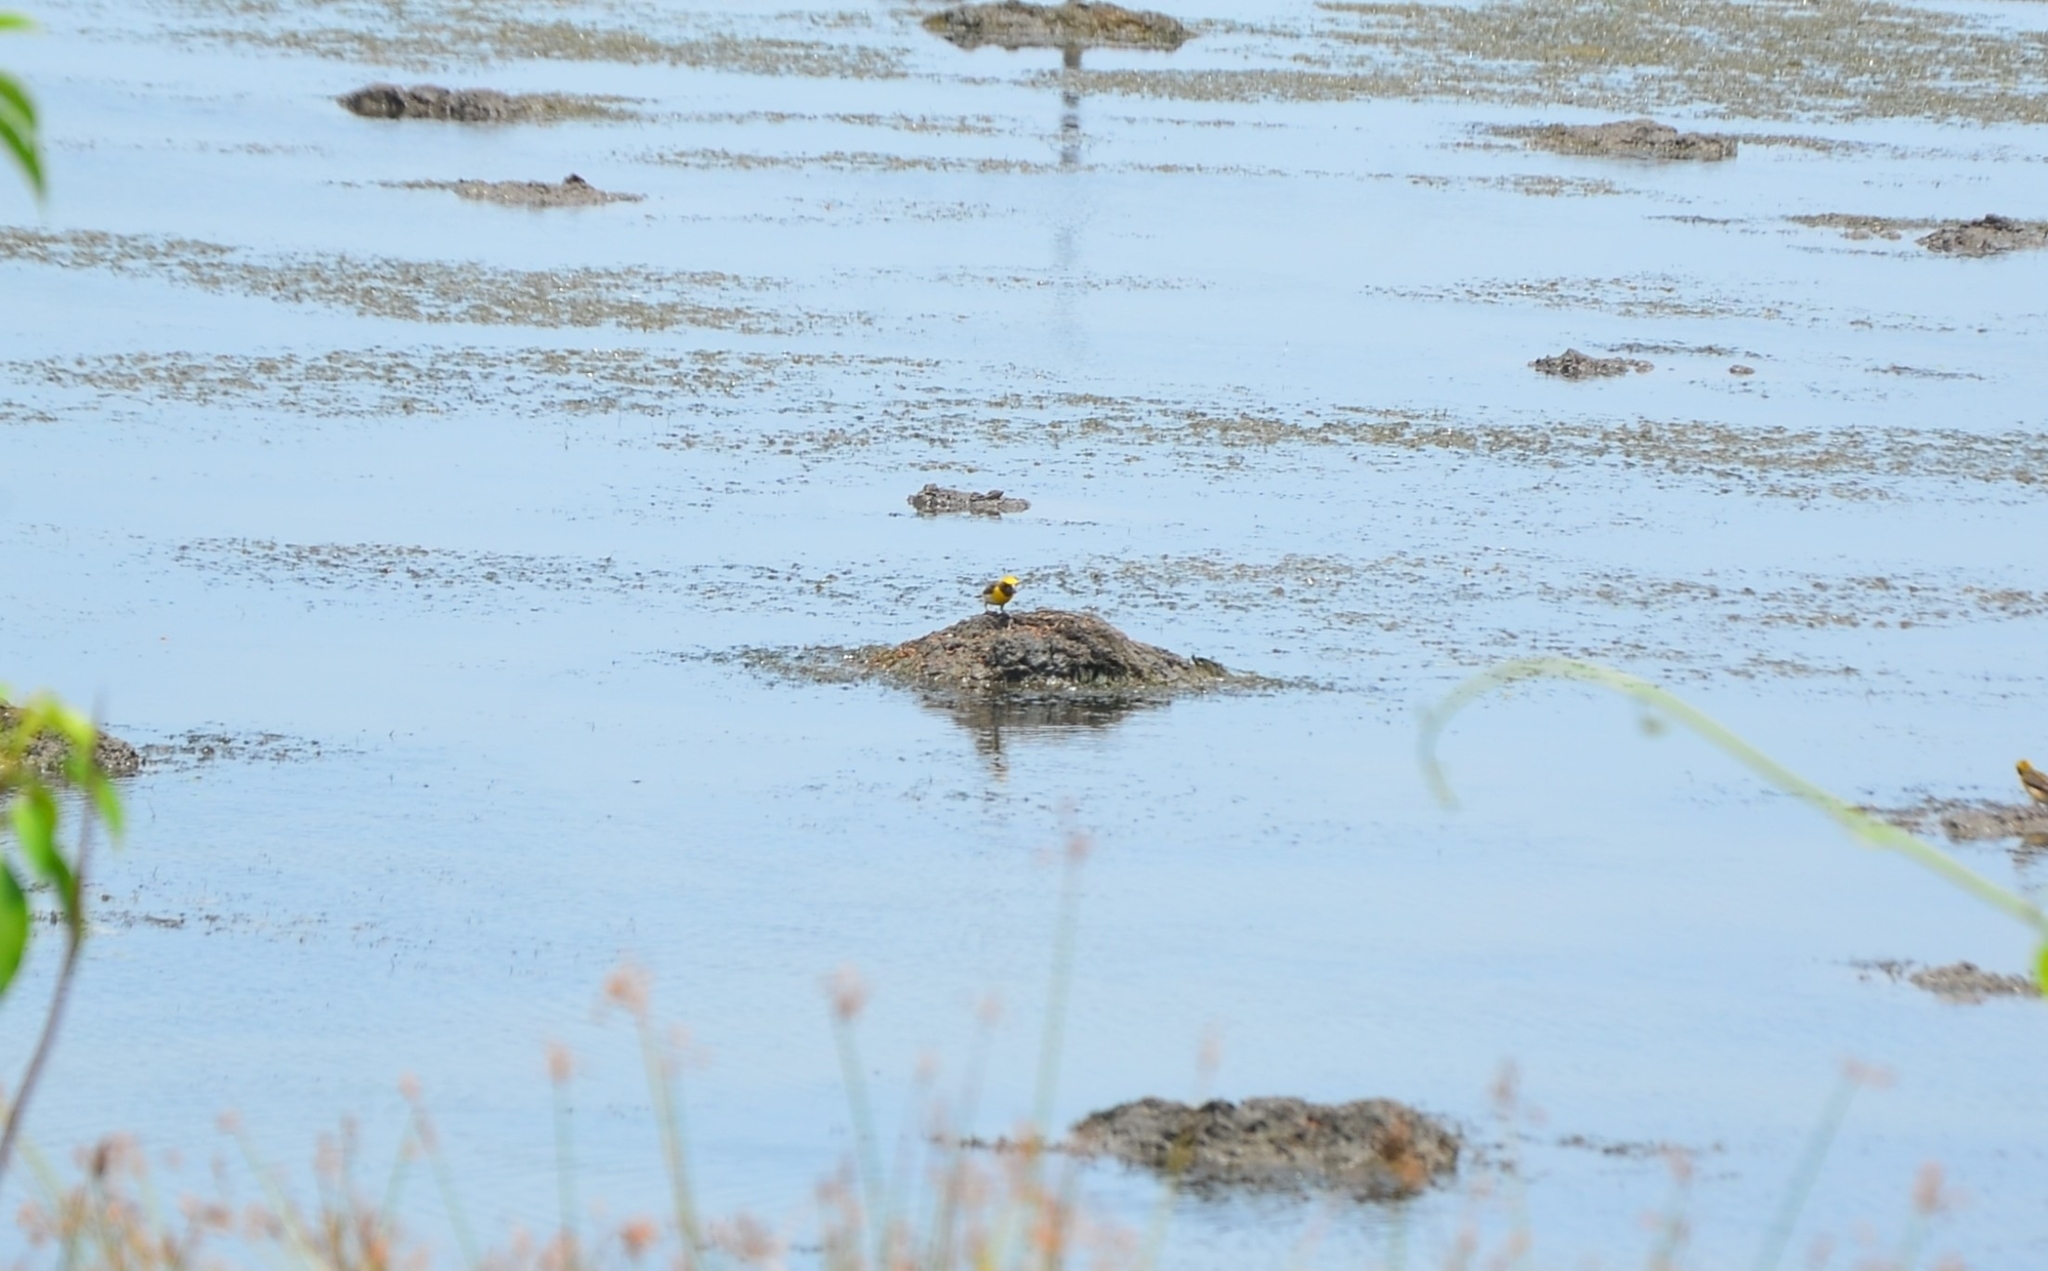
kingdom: Animalia
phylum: Chordata
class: Aves
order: Passeriformes
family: Ploceidae
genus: Ploceus
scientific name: Ploceus philippinus
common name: Baya weaver
